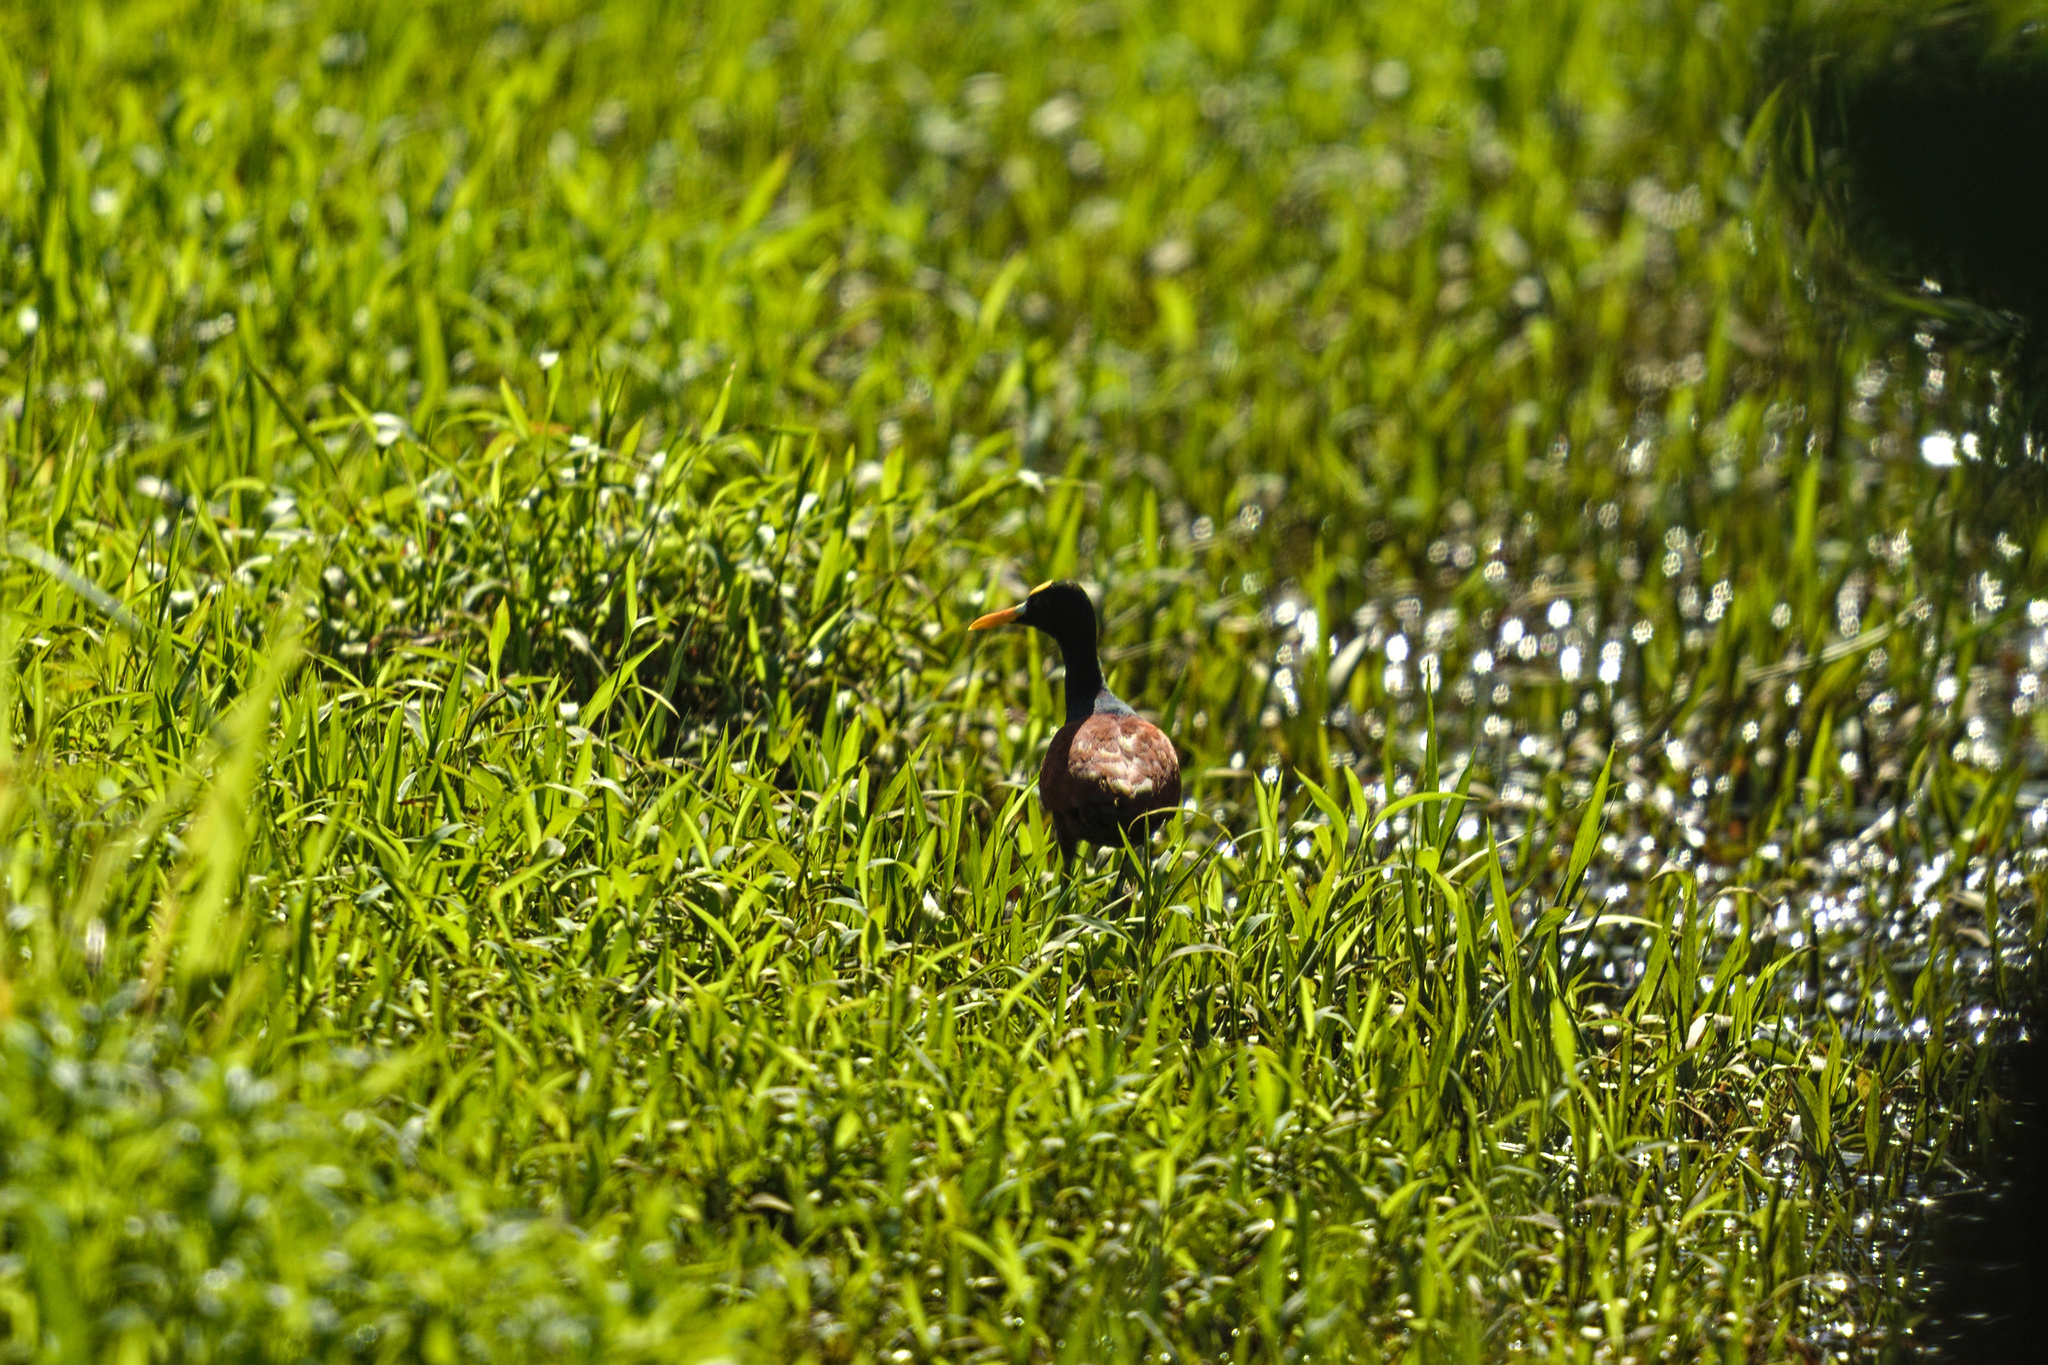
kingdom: Animalia
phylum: Chordata
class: Aves
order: Charadriiformes
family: Jacanidae
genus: Jacana
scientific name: Jacana spinosa
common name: Northern jacana
